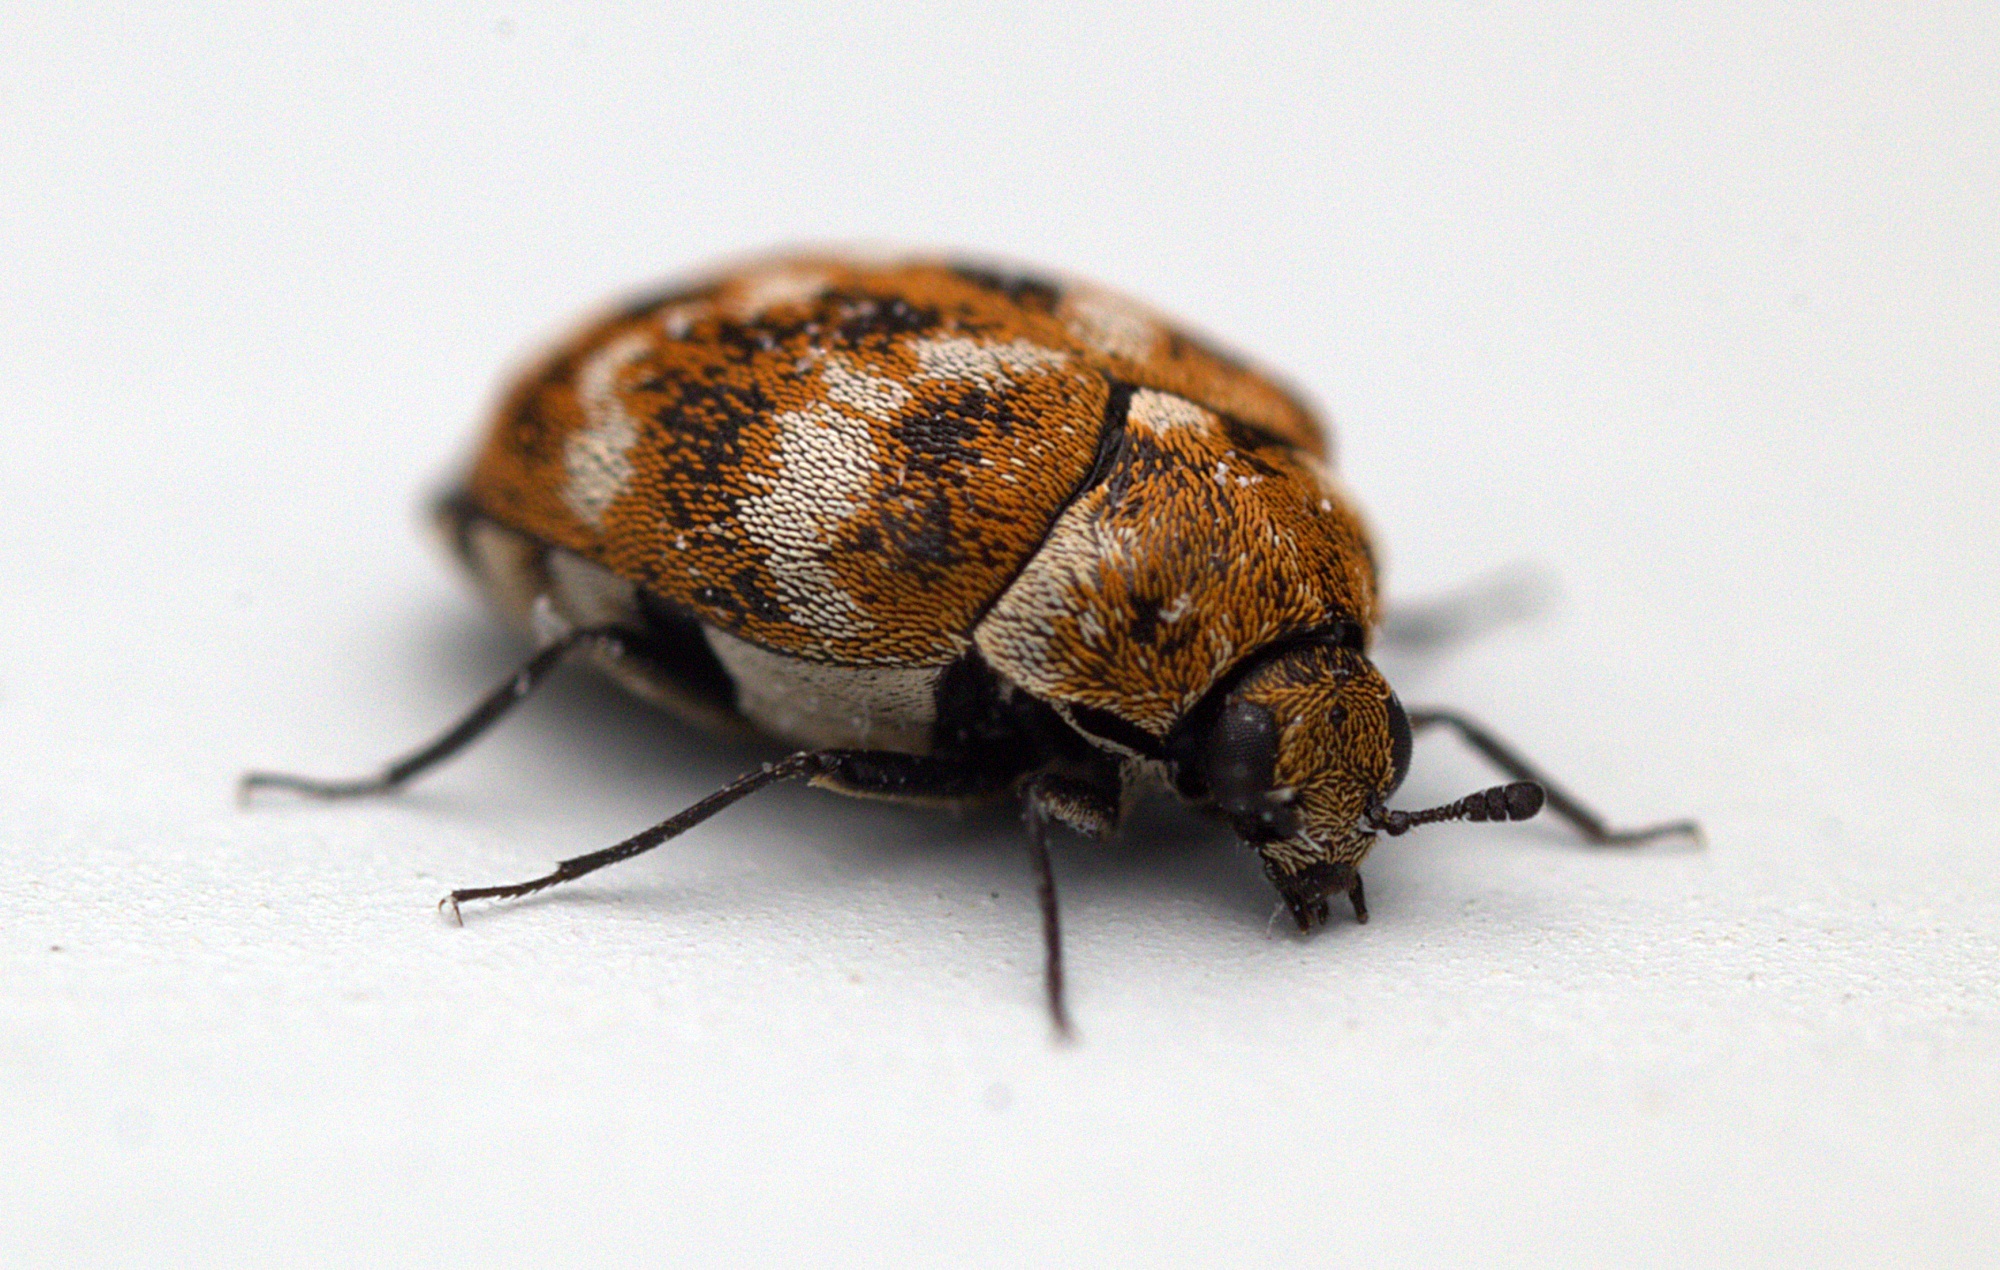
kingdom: Animalia
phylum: Arthropoda
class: Insecta
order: Coleoptera
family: Dermestidae
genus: Anthrenus
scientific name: Anthrenus verbasci
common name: Varied carpet beetle
